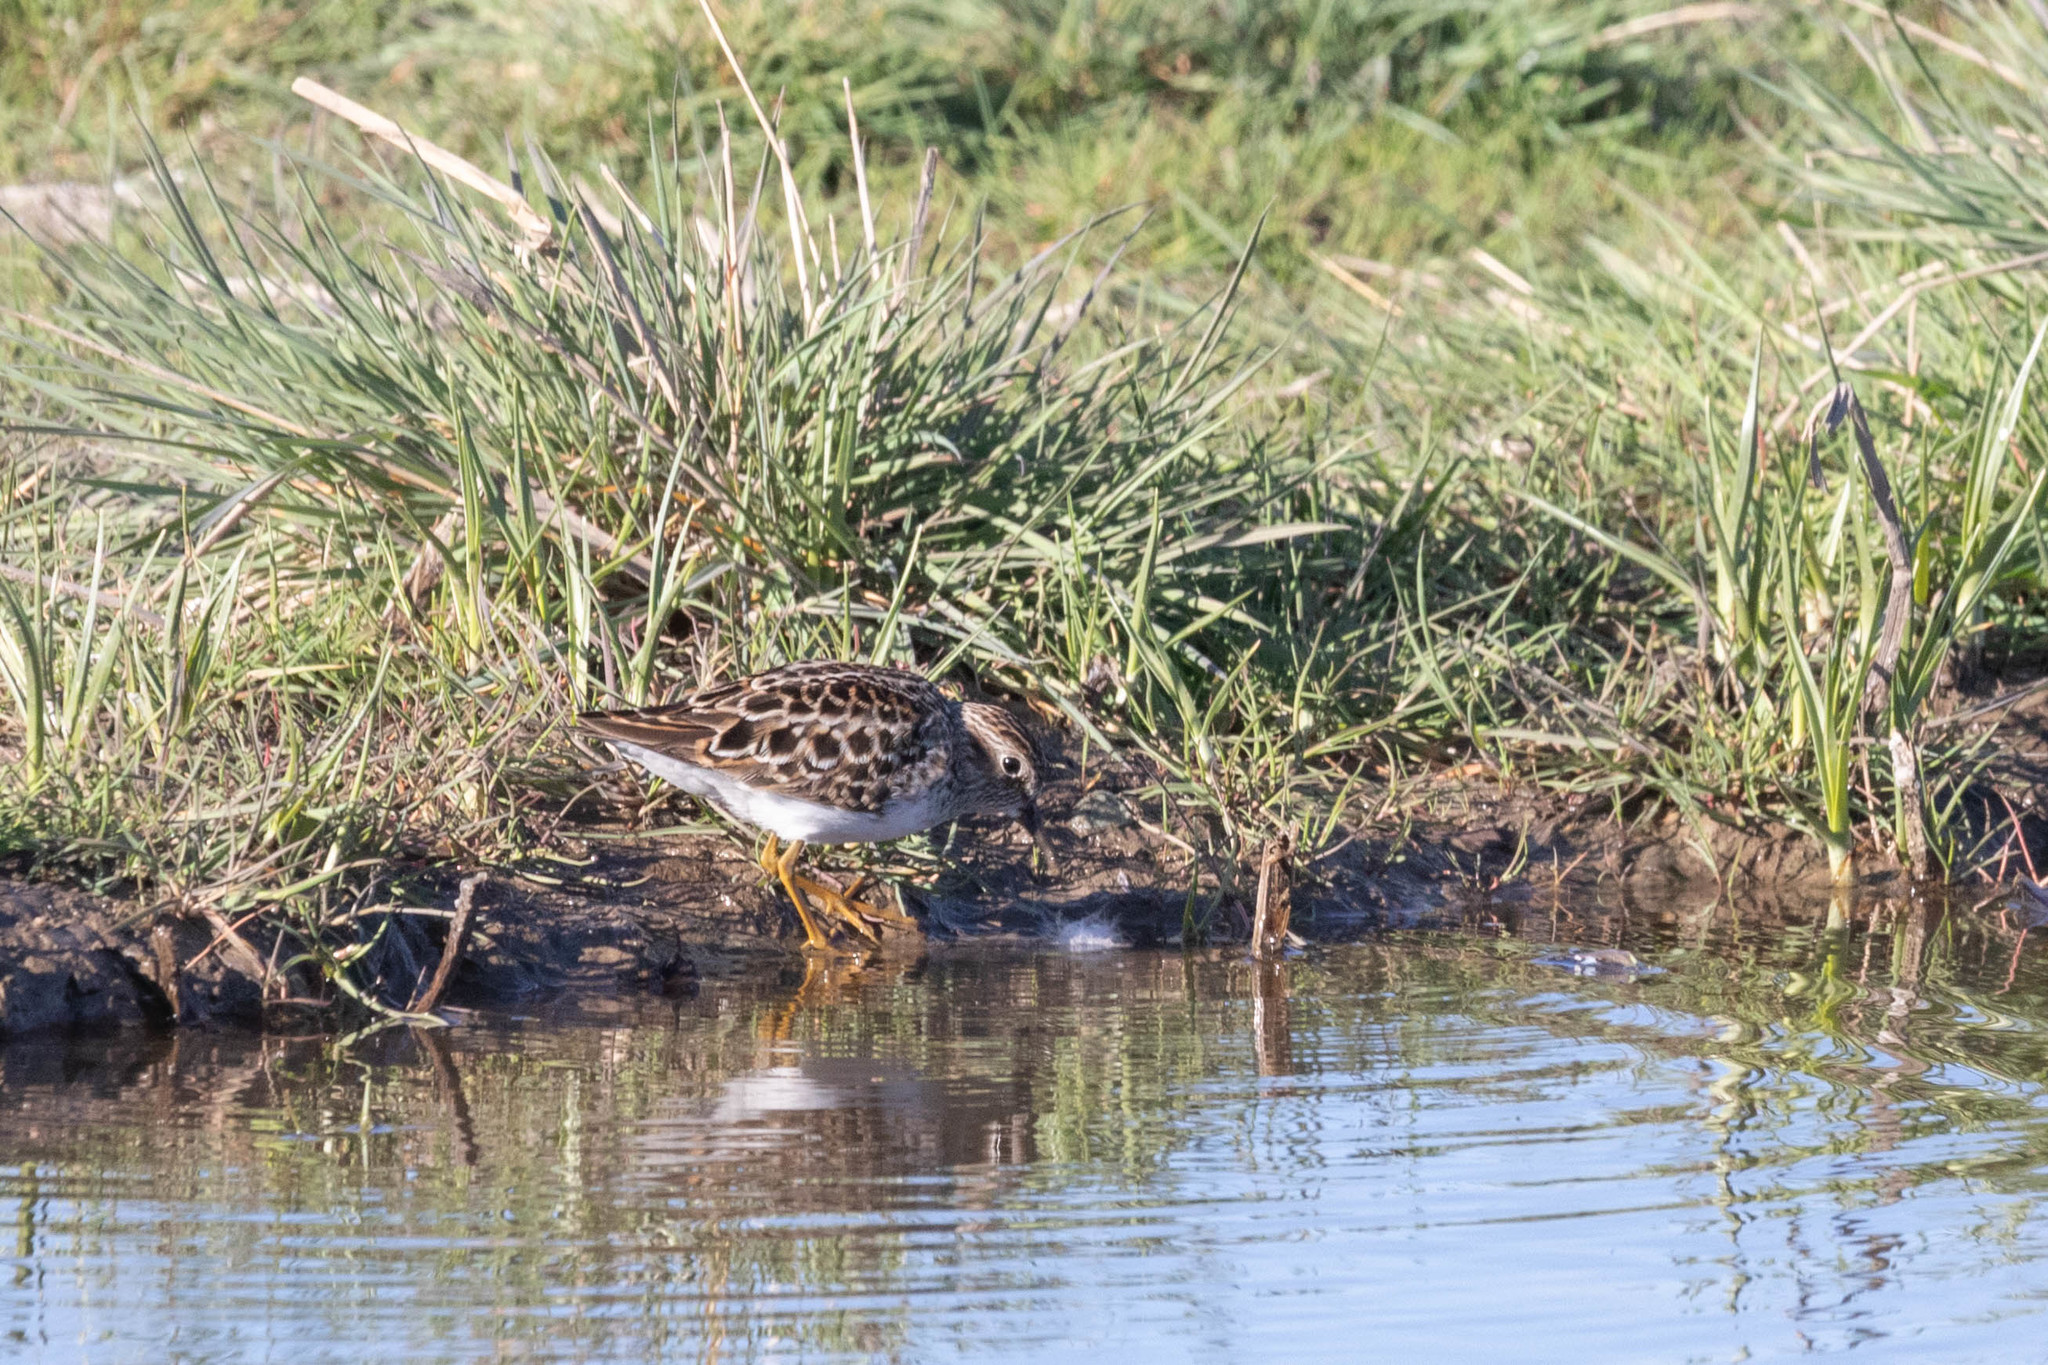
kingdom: Animalia
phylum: Chordata
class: Aves
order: Charadriiformes
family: Scolopacidae
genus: Calidris
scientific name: Calidris minutilla
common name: Least sandpiper
